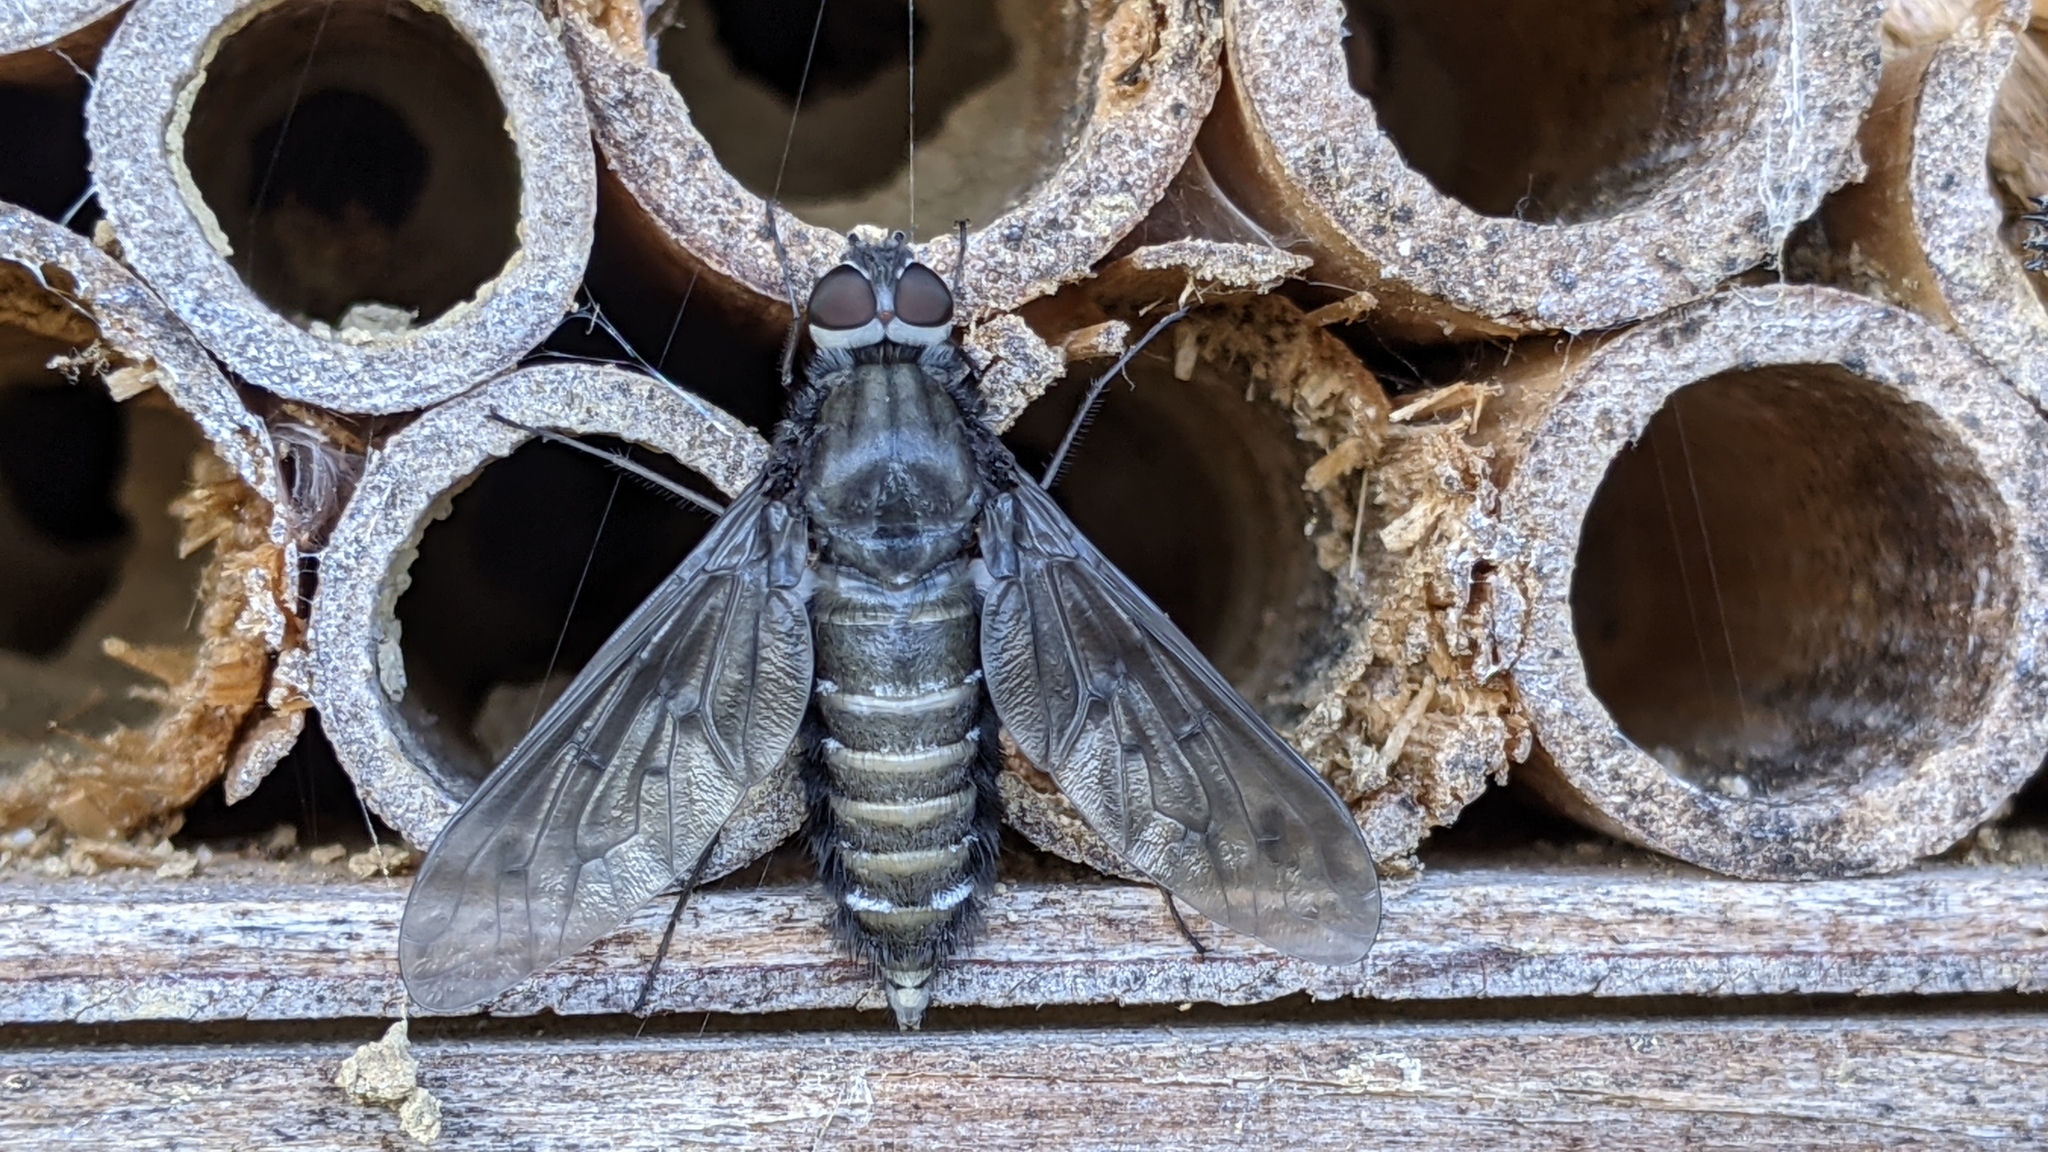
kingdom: Animalia
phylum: Arthropoda
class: Insecta
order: Diptera
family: Bombyliidae
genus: Anthrax
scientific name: Anthrax anthrax
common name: Anthracite bee-fly
